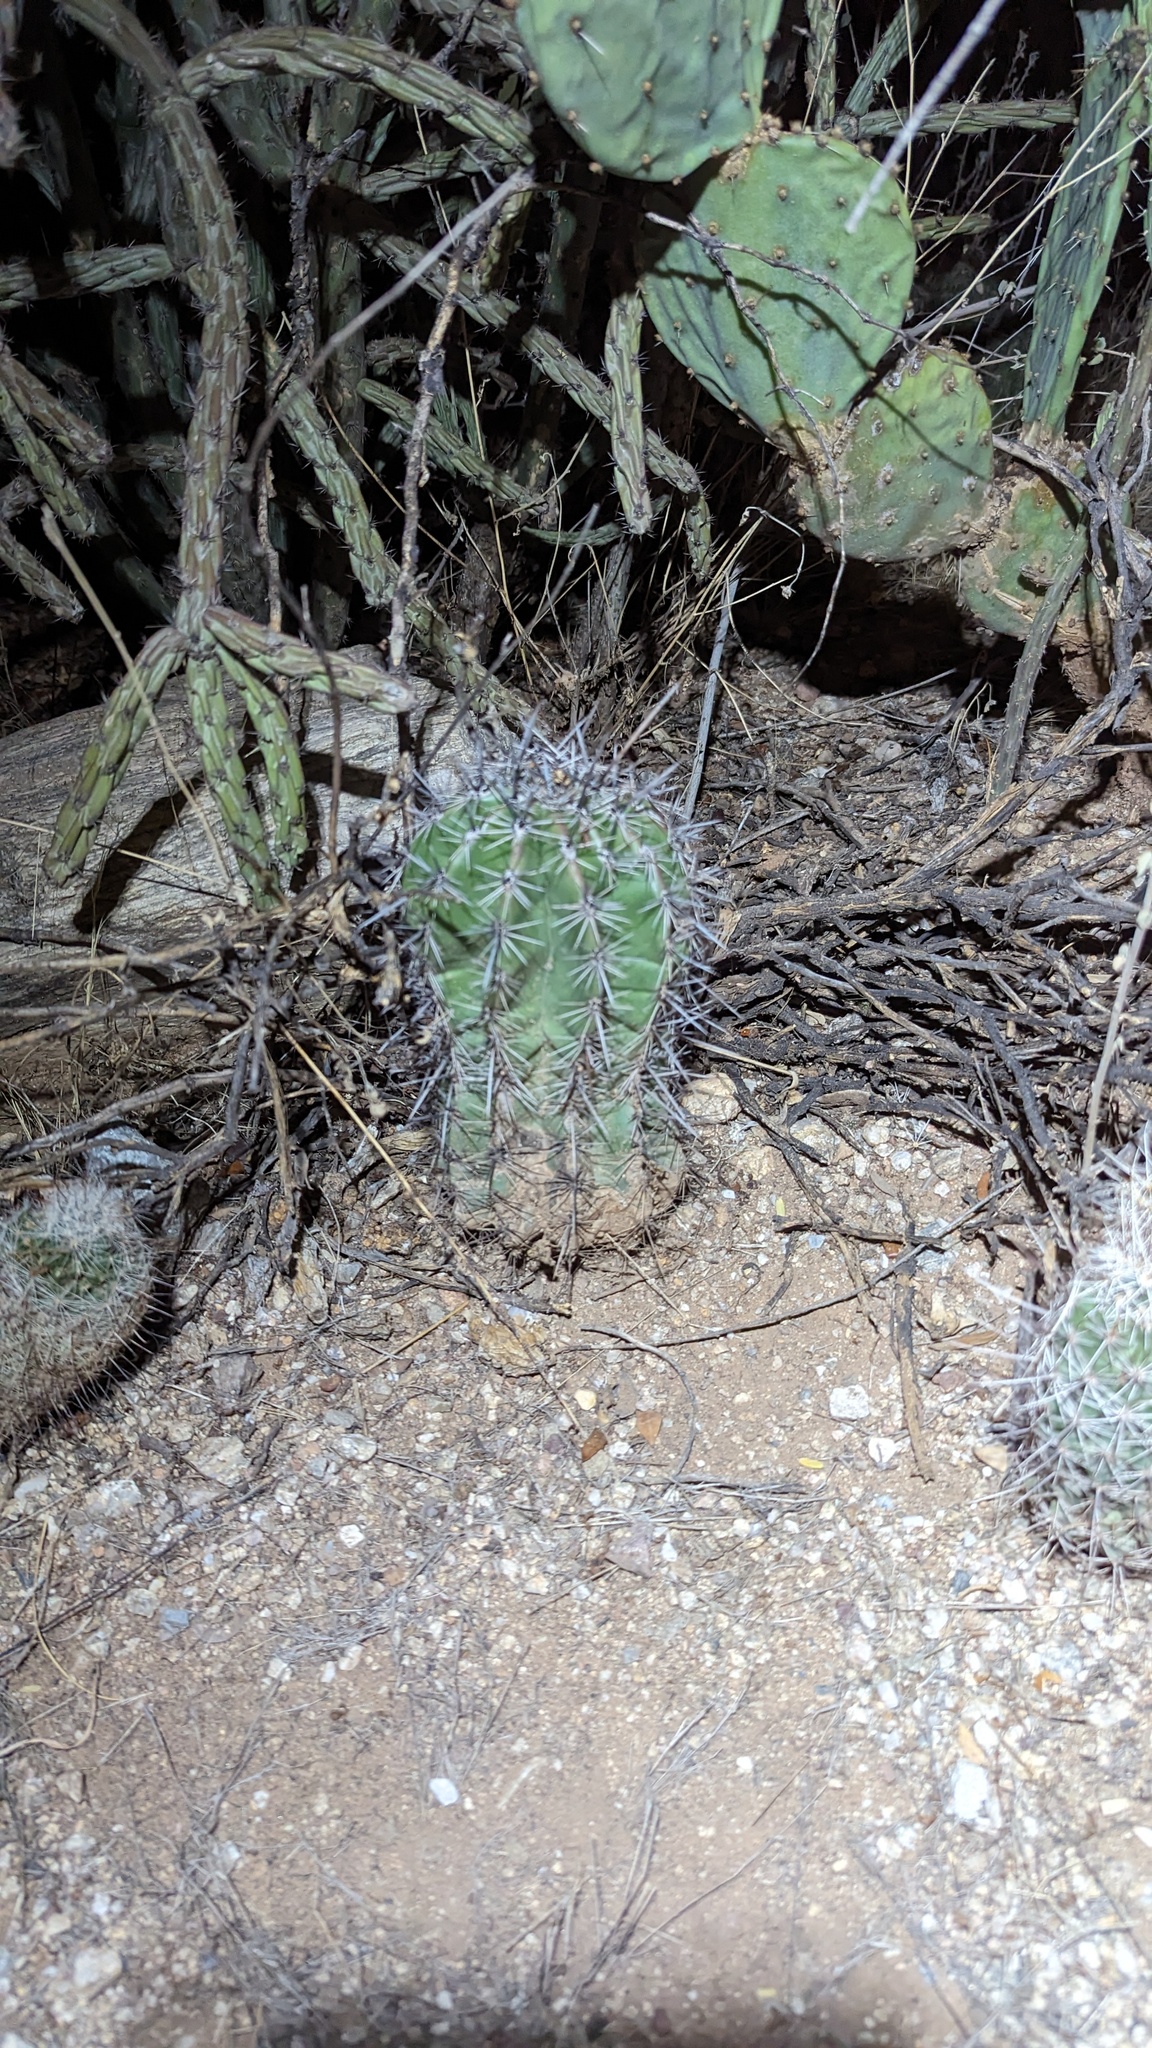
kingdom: Plantae
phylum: Tracheophyta
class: Magnoliopsida
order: Caryophyllales
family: Cactaceae
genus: Carnegiea
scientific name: Carnegiea gigantea
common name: Saguaro
